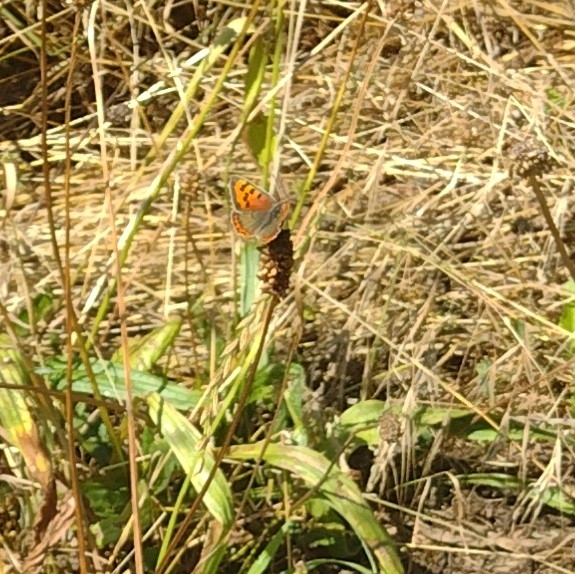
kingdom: Animalia
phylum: Arthropoda
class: Insecta
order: Lepidoptera
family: Lycaenidae
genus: Lycaena
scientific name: Lycaena phlaeas
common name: Small copper
